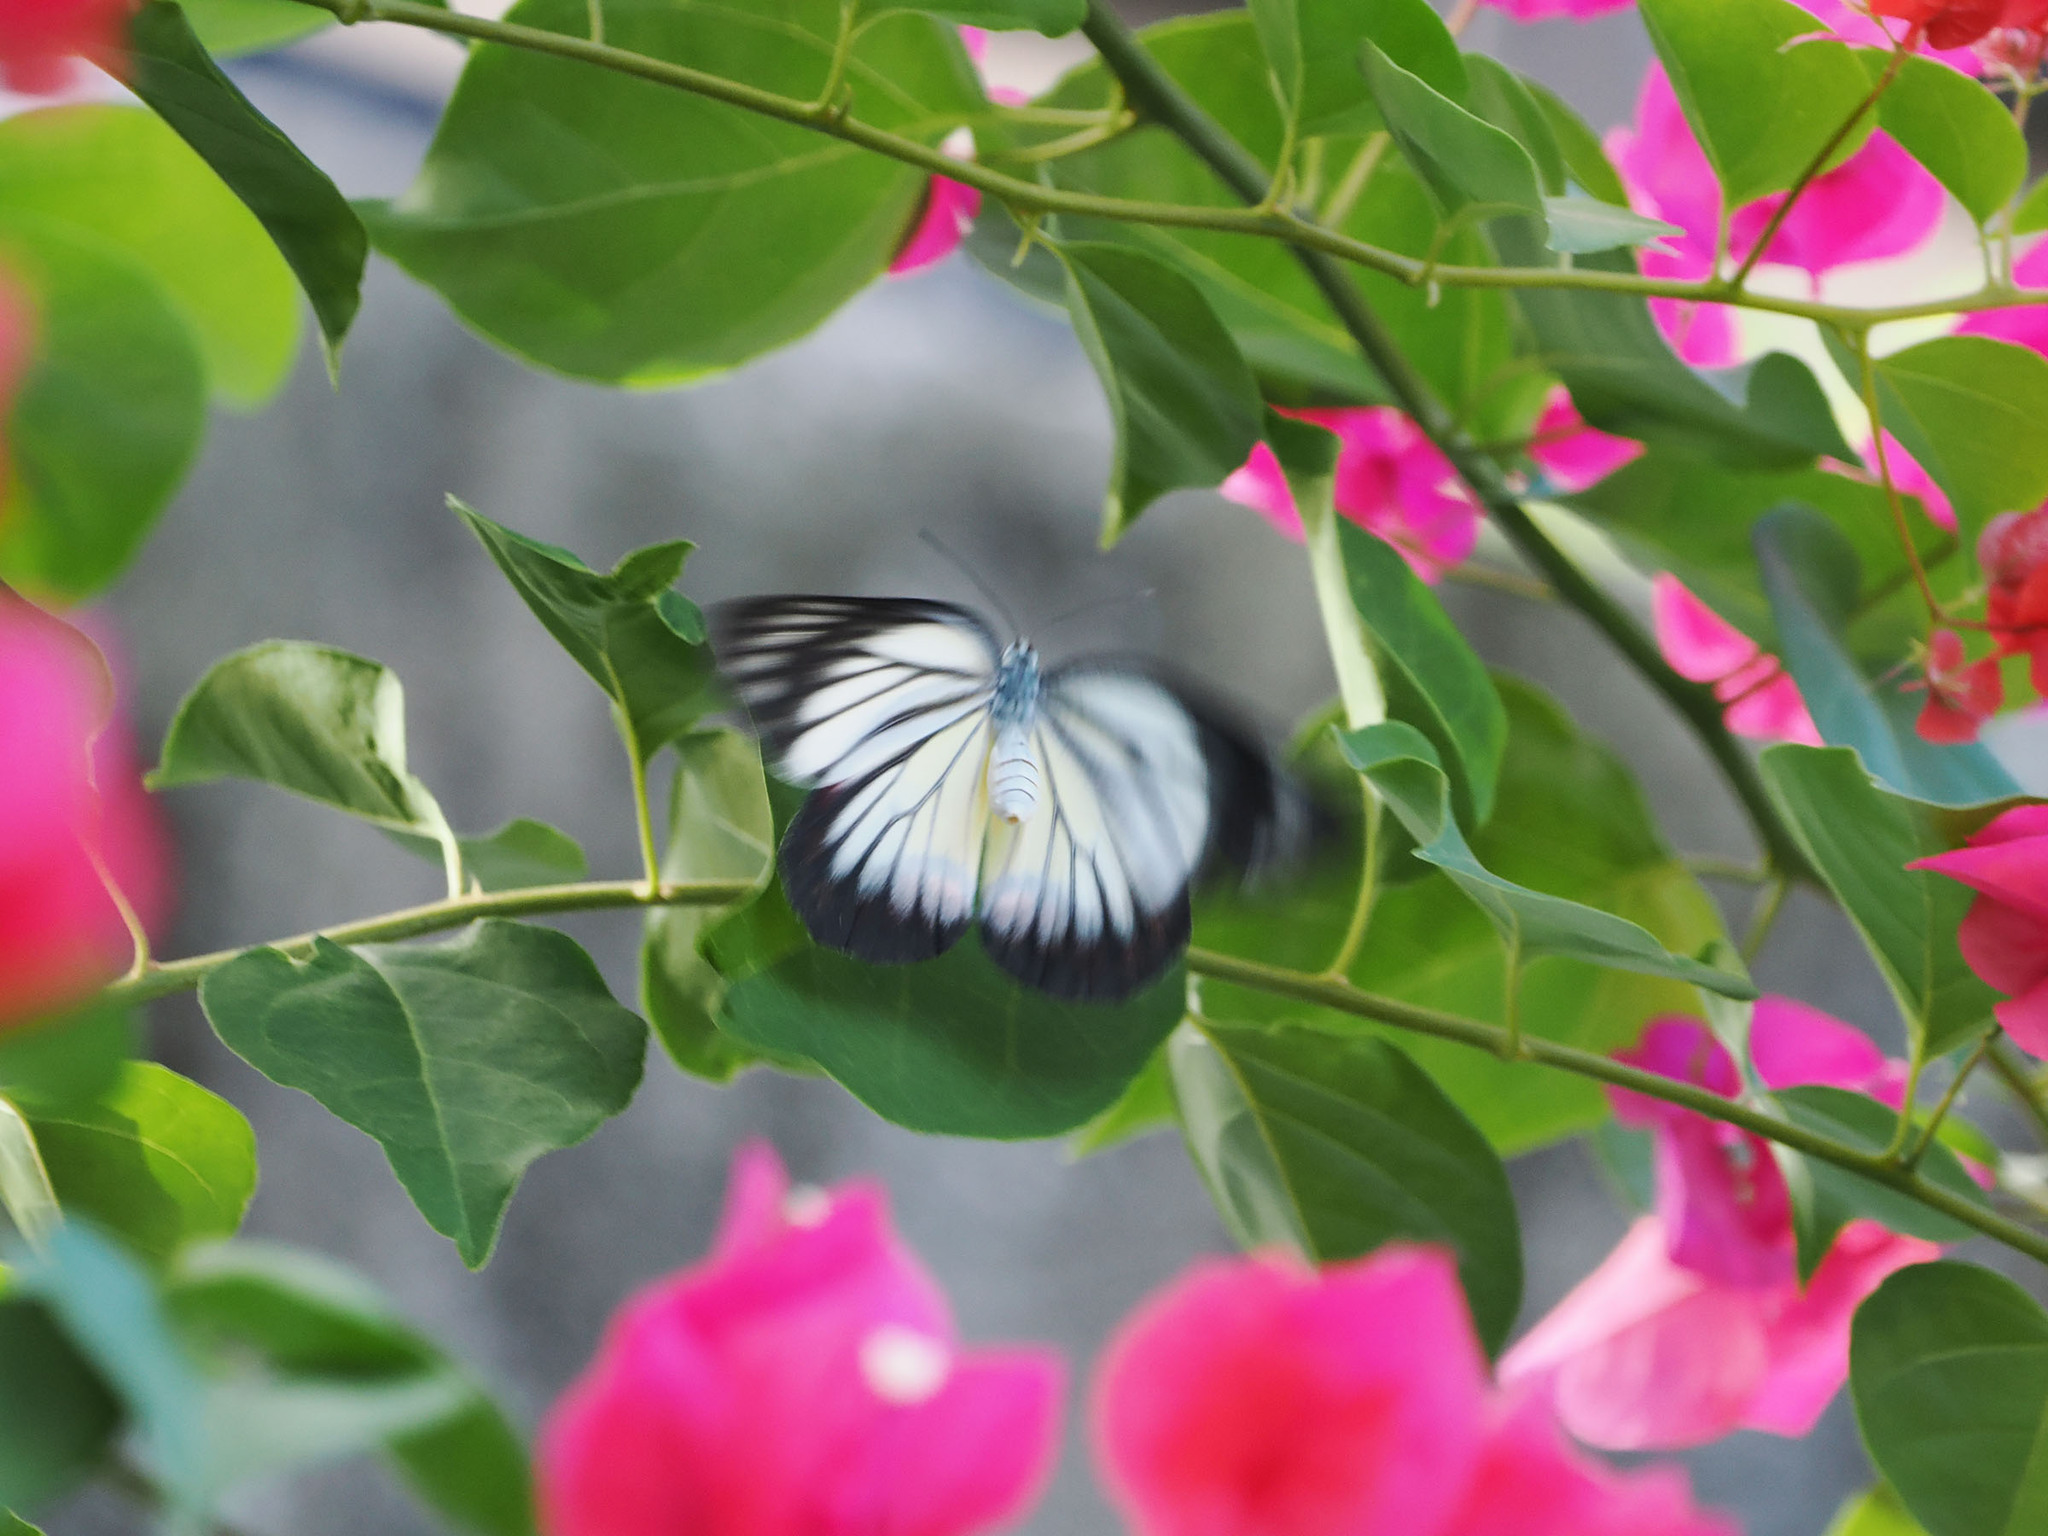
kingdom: Animalia
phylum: Arthropoda
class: Insecta
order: Lepidoptera
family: Pieridae
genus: Delias
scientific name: Delias hyparete
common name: Painted jezebel
